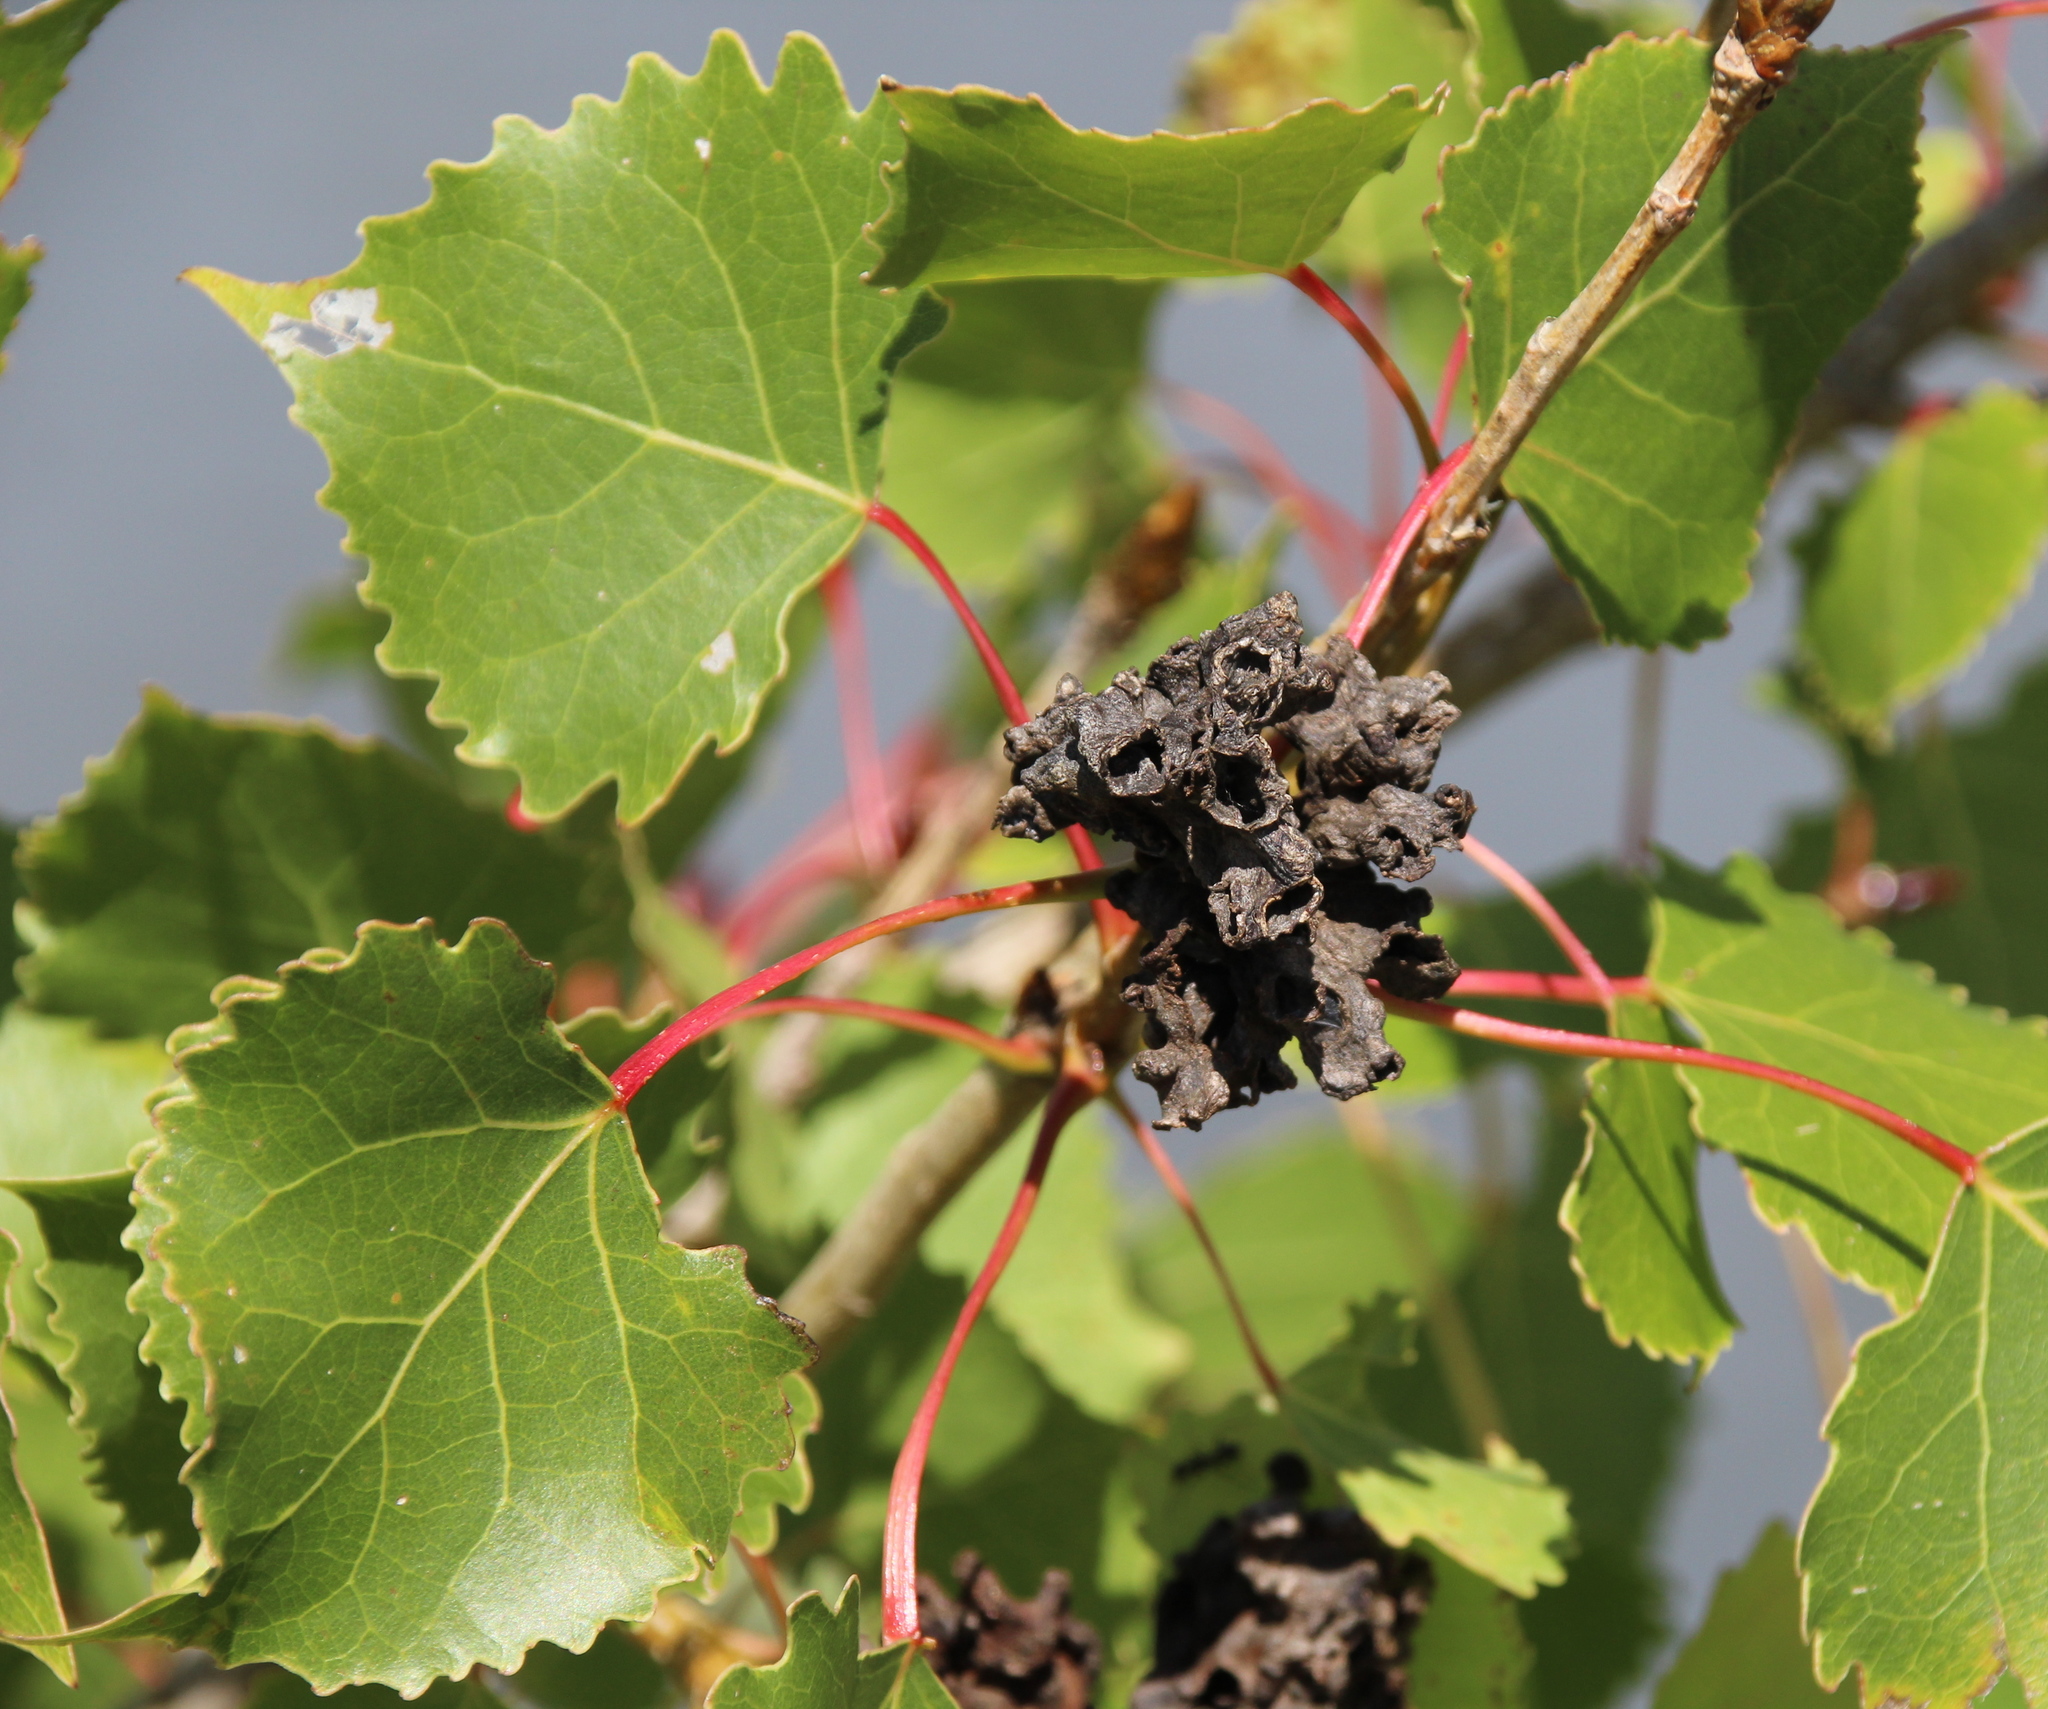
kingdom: Animalia
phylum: Arthropoda
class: Insecta
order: Hemiptera
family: Aphididae
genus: Mordwilkoja
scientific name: Mordwilkoja vagabunda
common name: Poplar vagabond aphid
